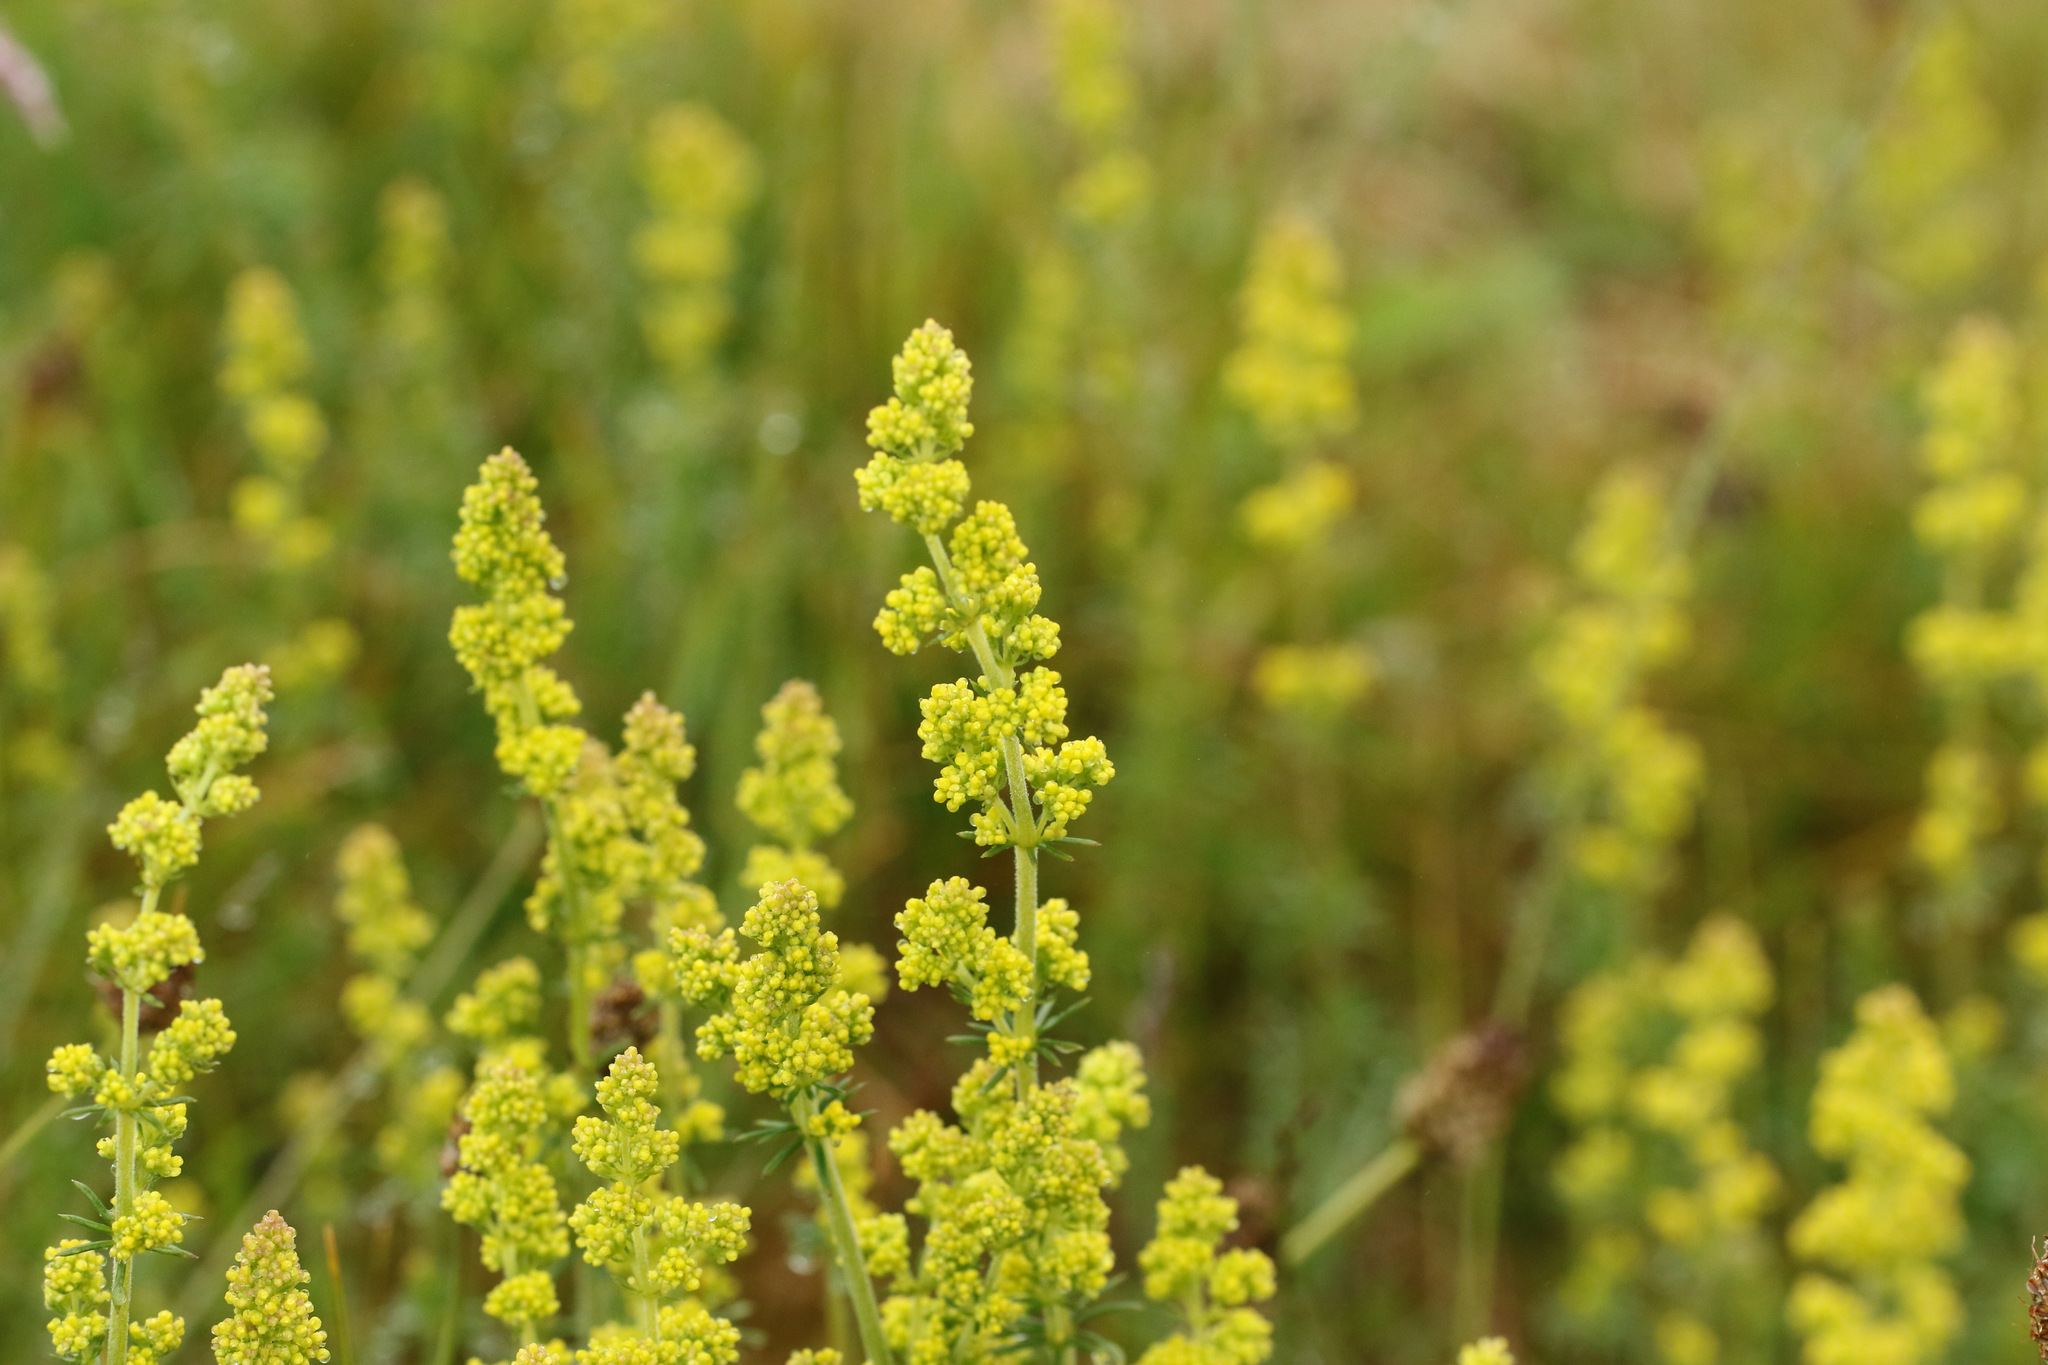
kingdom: Plantae
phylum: Tracheophyta
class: Magnoliopsida
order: Gentianales
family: Rubiaceae
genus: Galium
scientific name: Galium verum
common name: Lady's bedstraw
